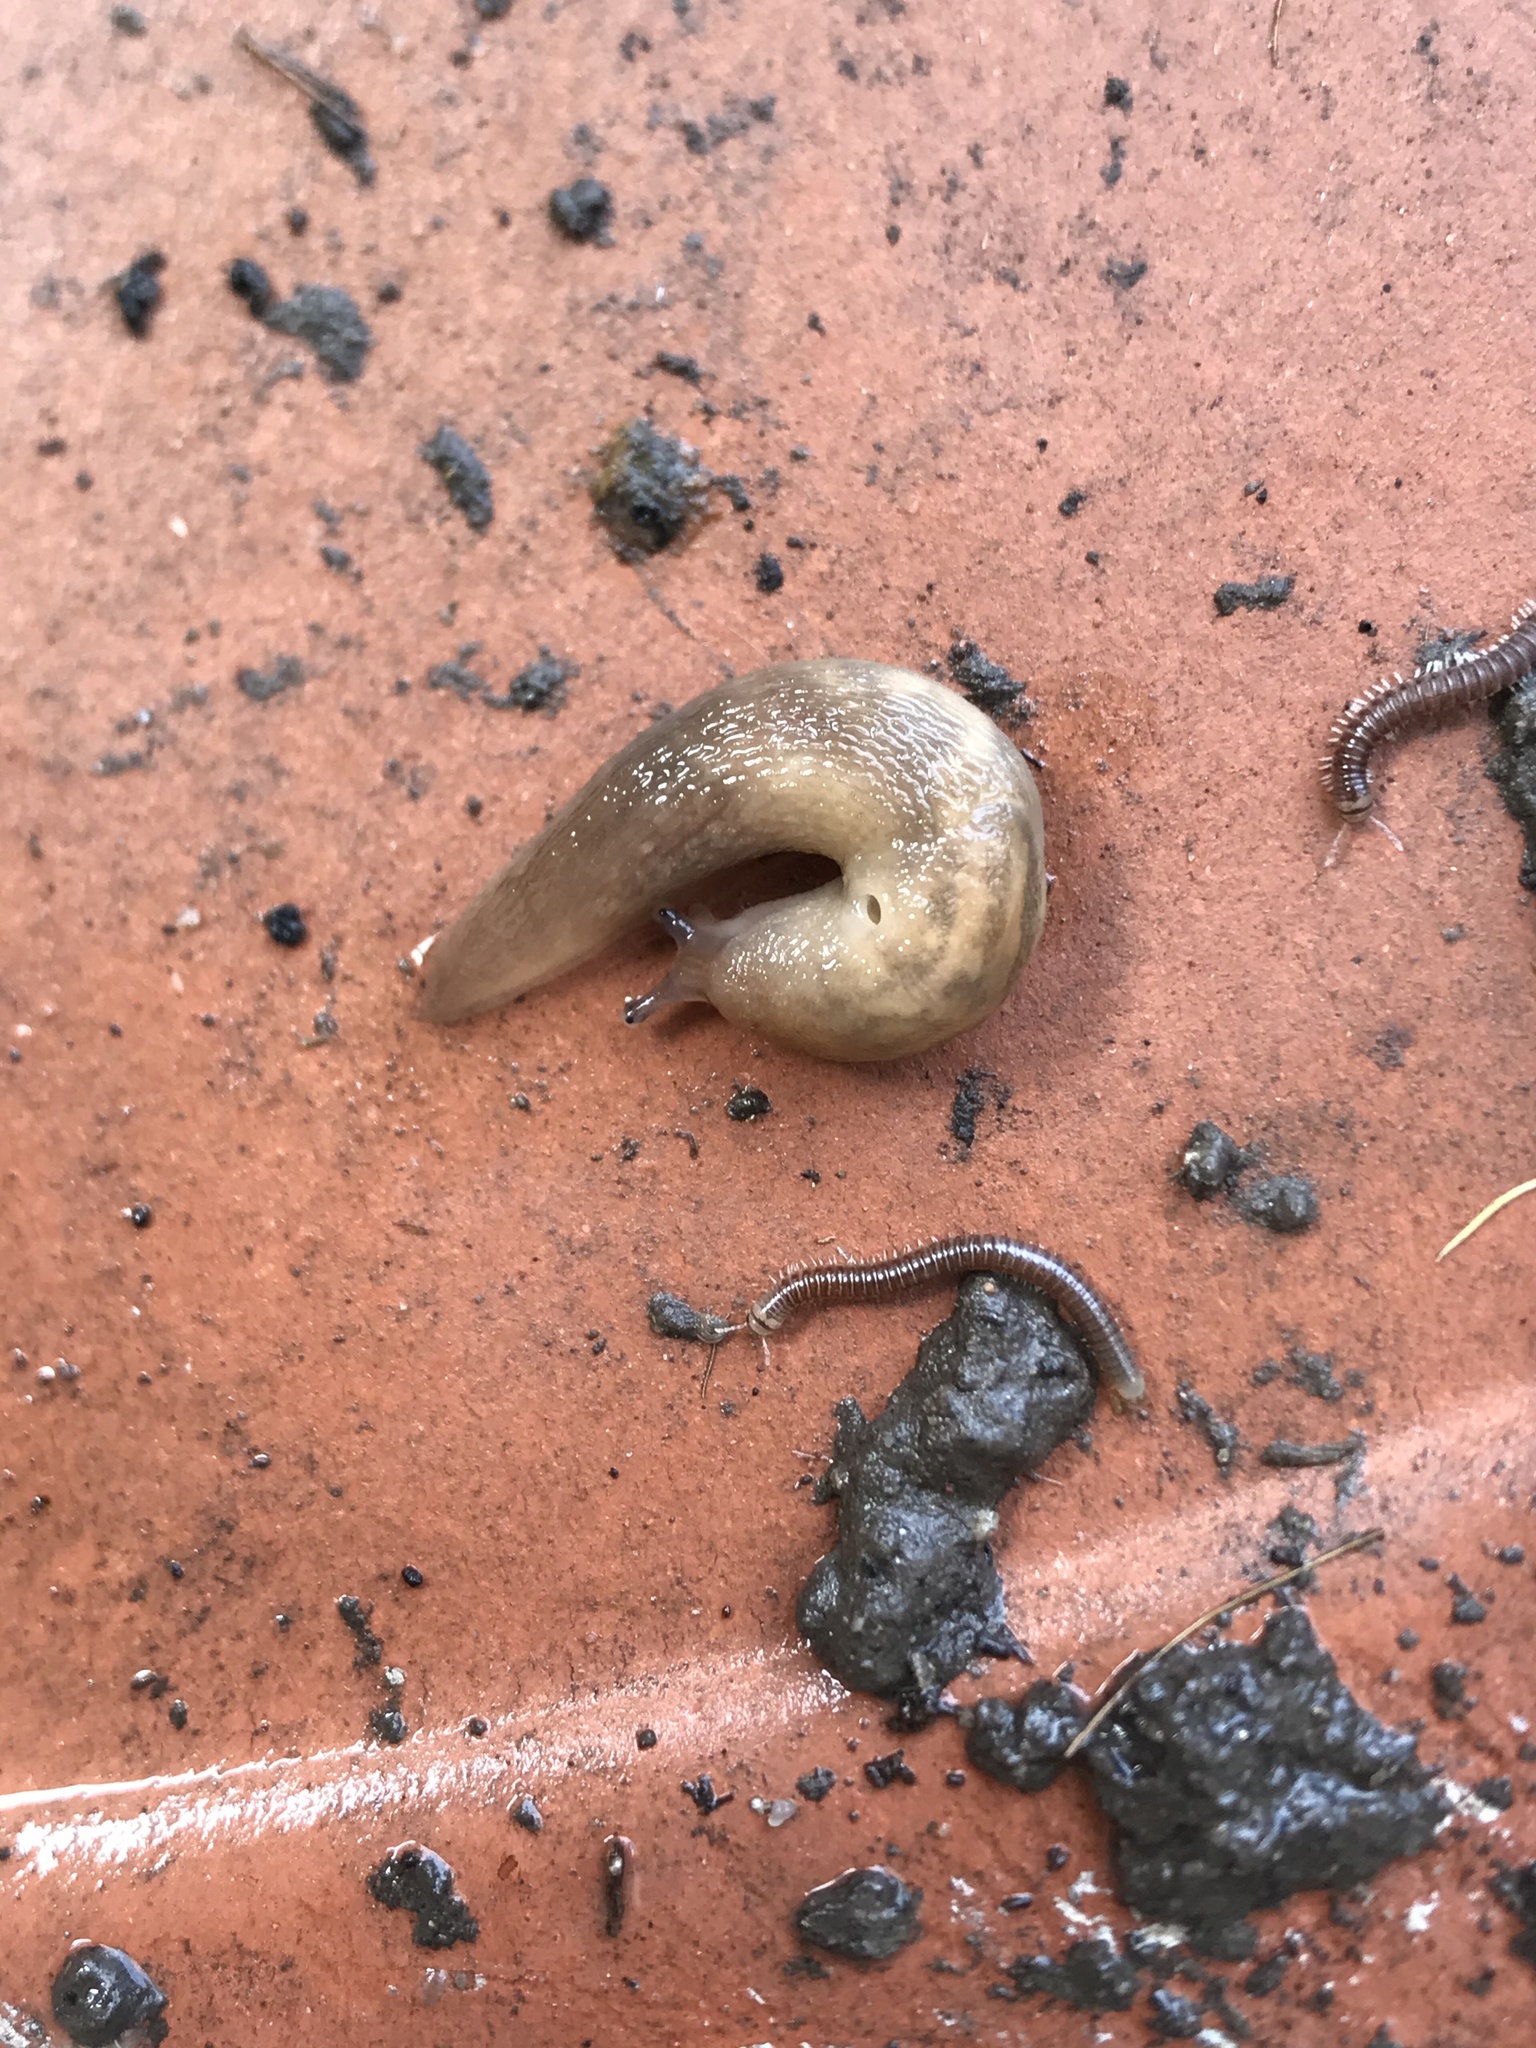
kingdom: Animalia
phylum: Mollusca
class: Gastropoda
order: Stylommatophora
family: Limacidae
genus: Ambigolimax
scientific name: Ambigolimax
